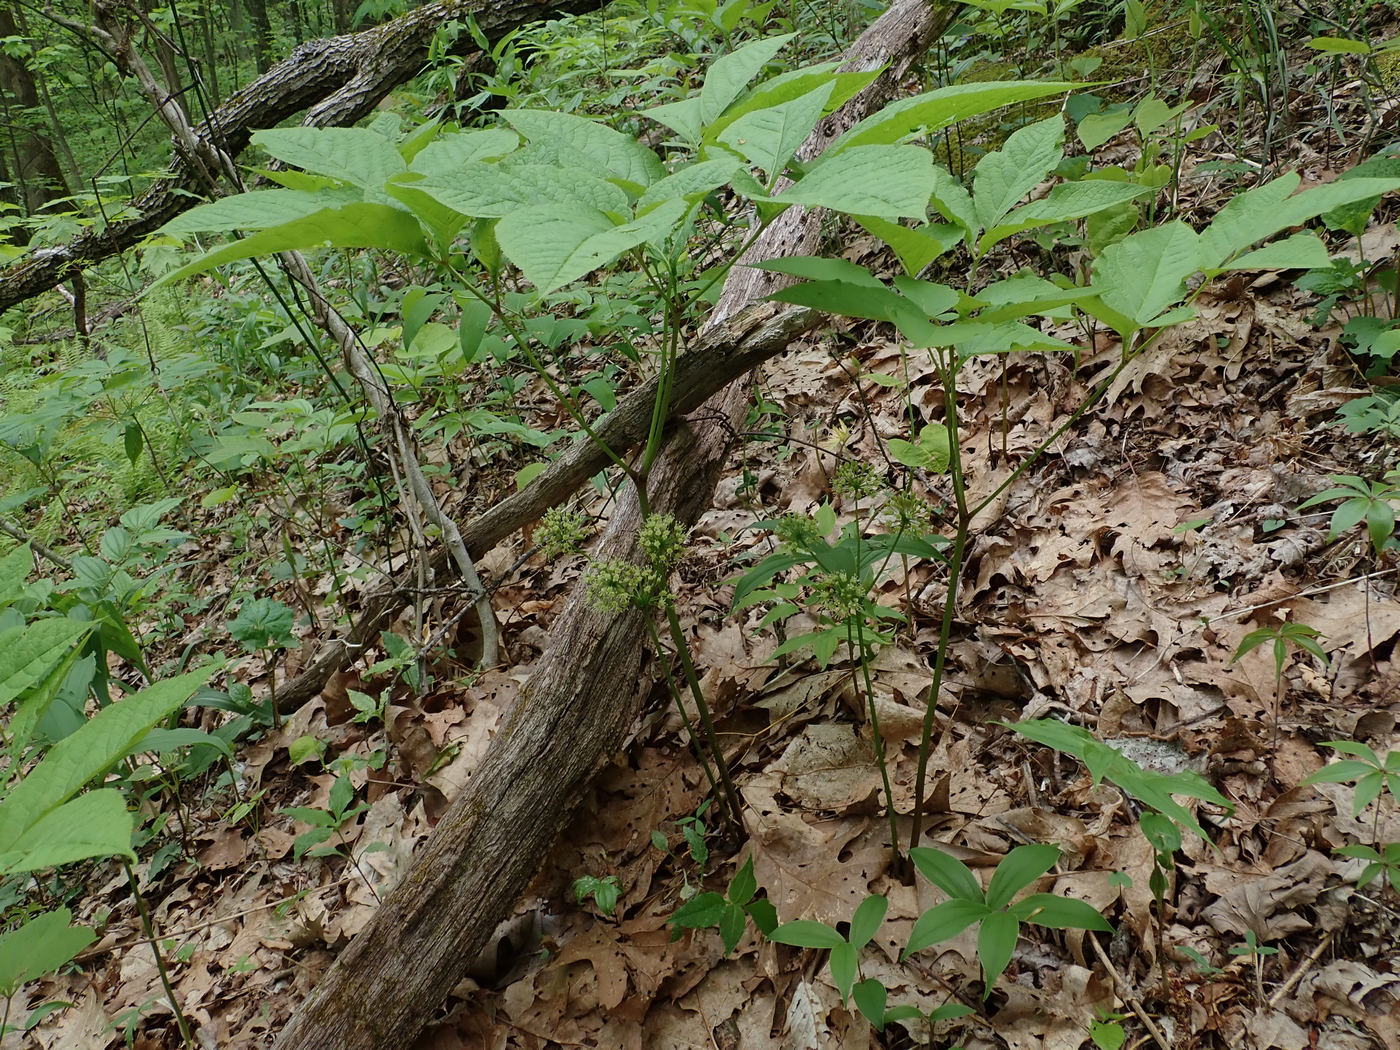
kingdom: Plantae
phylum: Tracheophyta
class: Magnoliopsida
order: Apiales
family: Araliaceae
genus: Aralia
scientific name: Aralia nudicaulis
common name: Wild sarsaparilla
